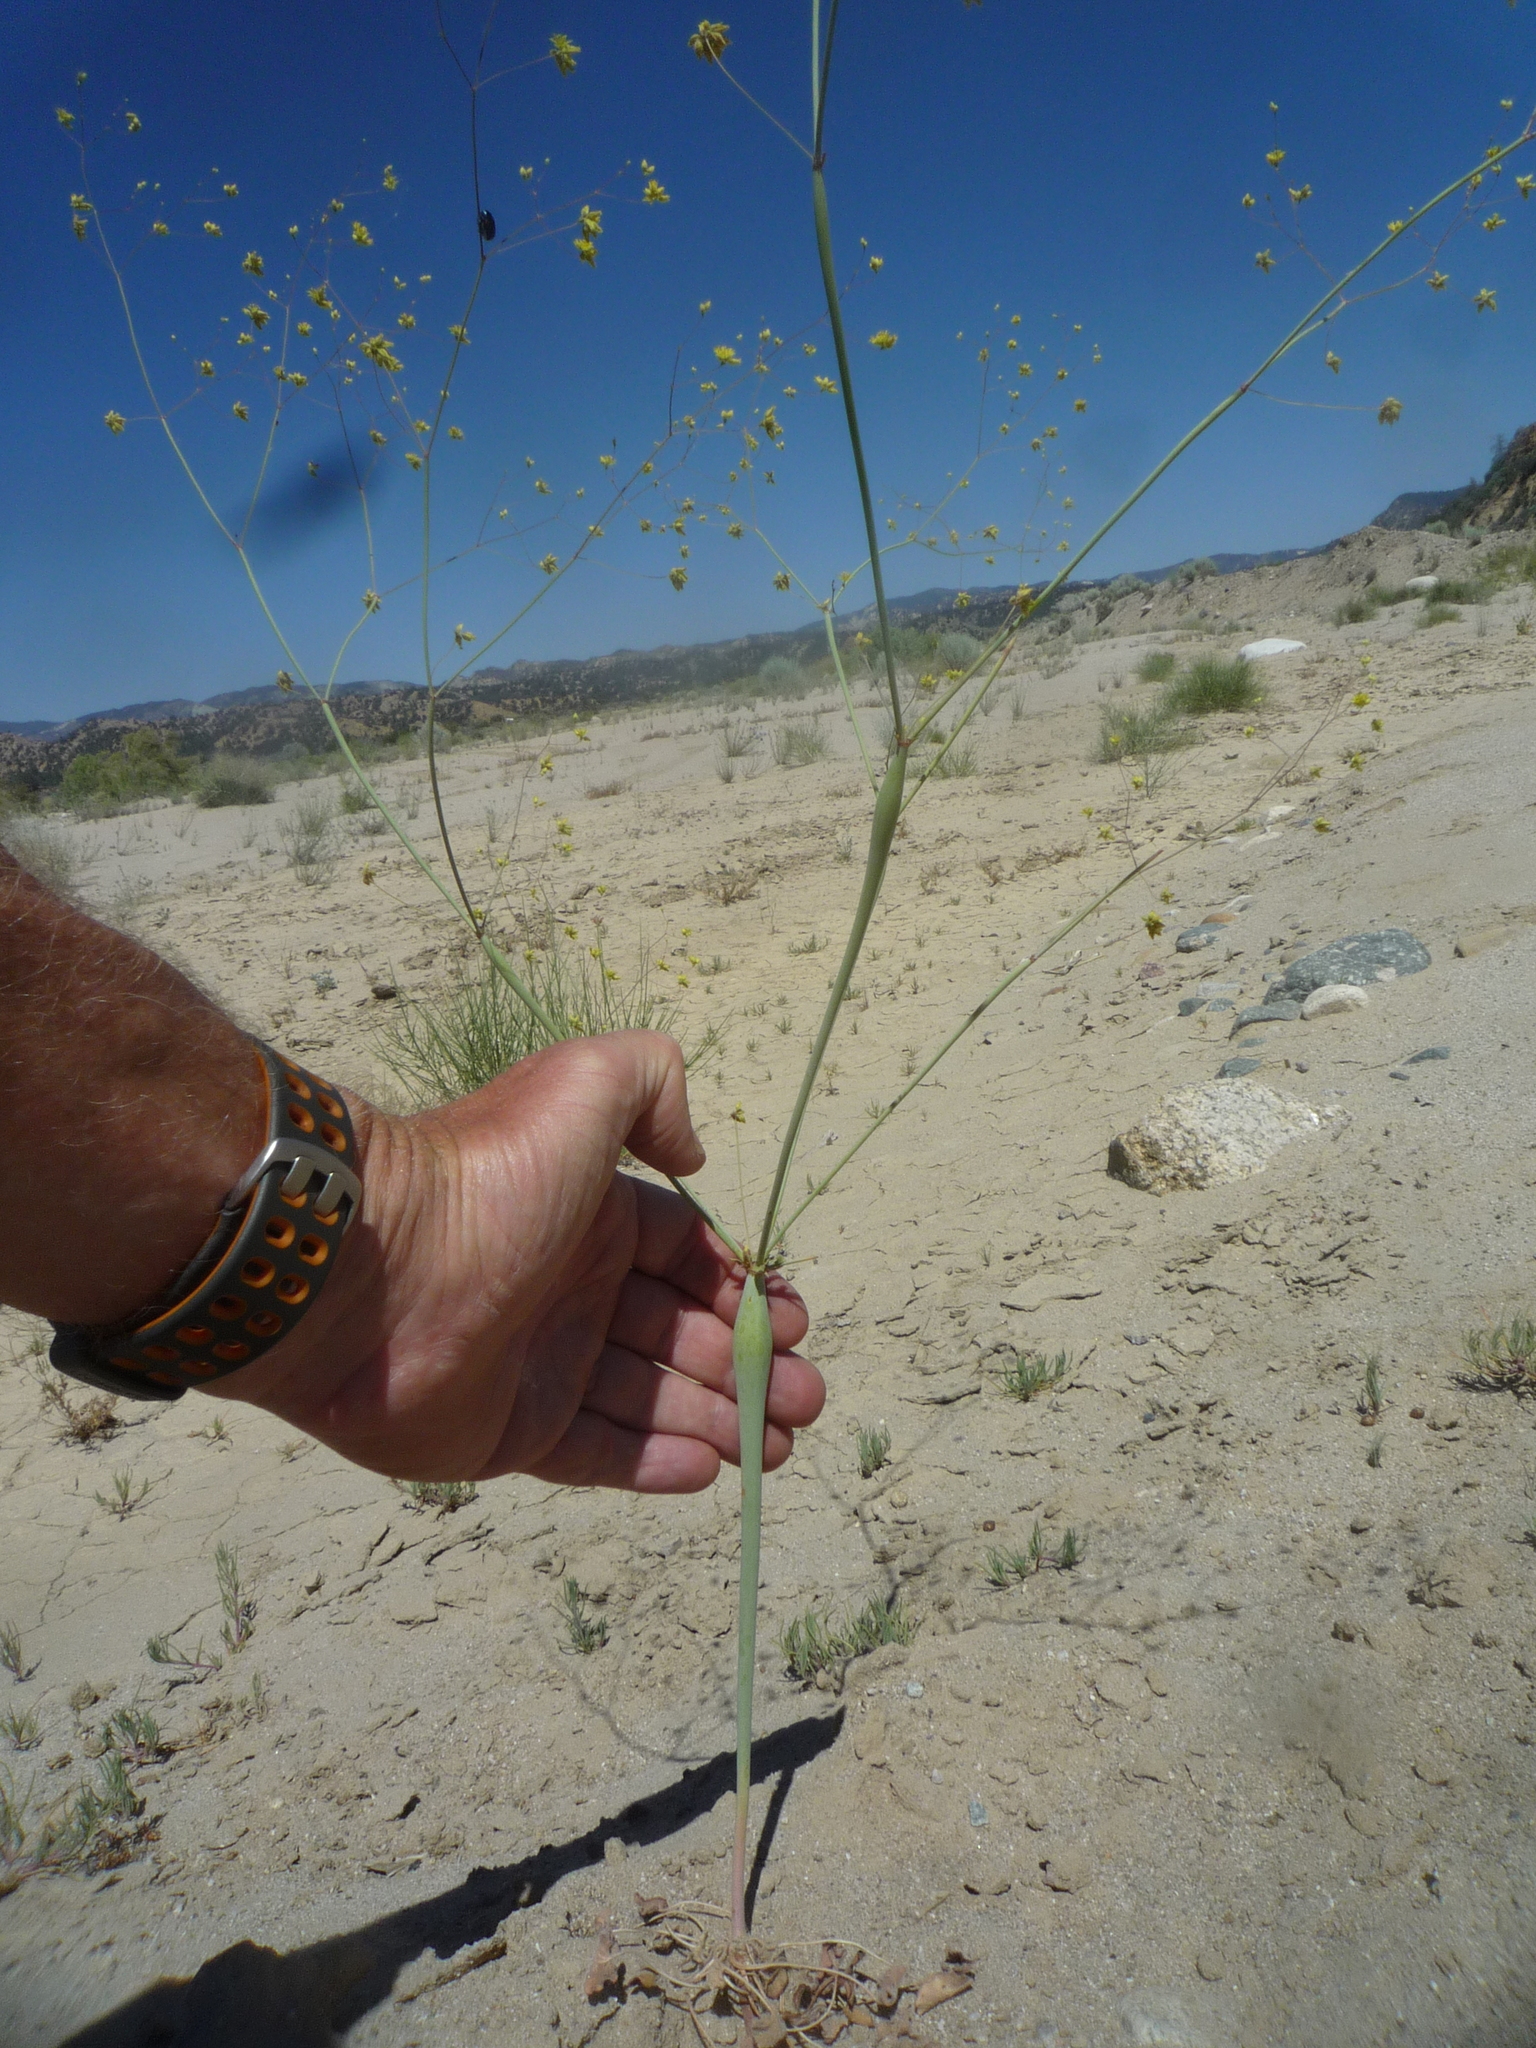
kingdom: Plantae
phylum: Tracheophyta
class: Magnoliopsida
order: Caryophyllales
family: Polygonaceae
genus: Eriogonum
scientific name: Eriogonum clavatum
